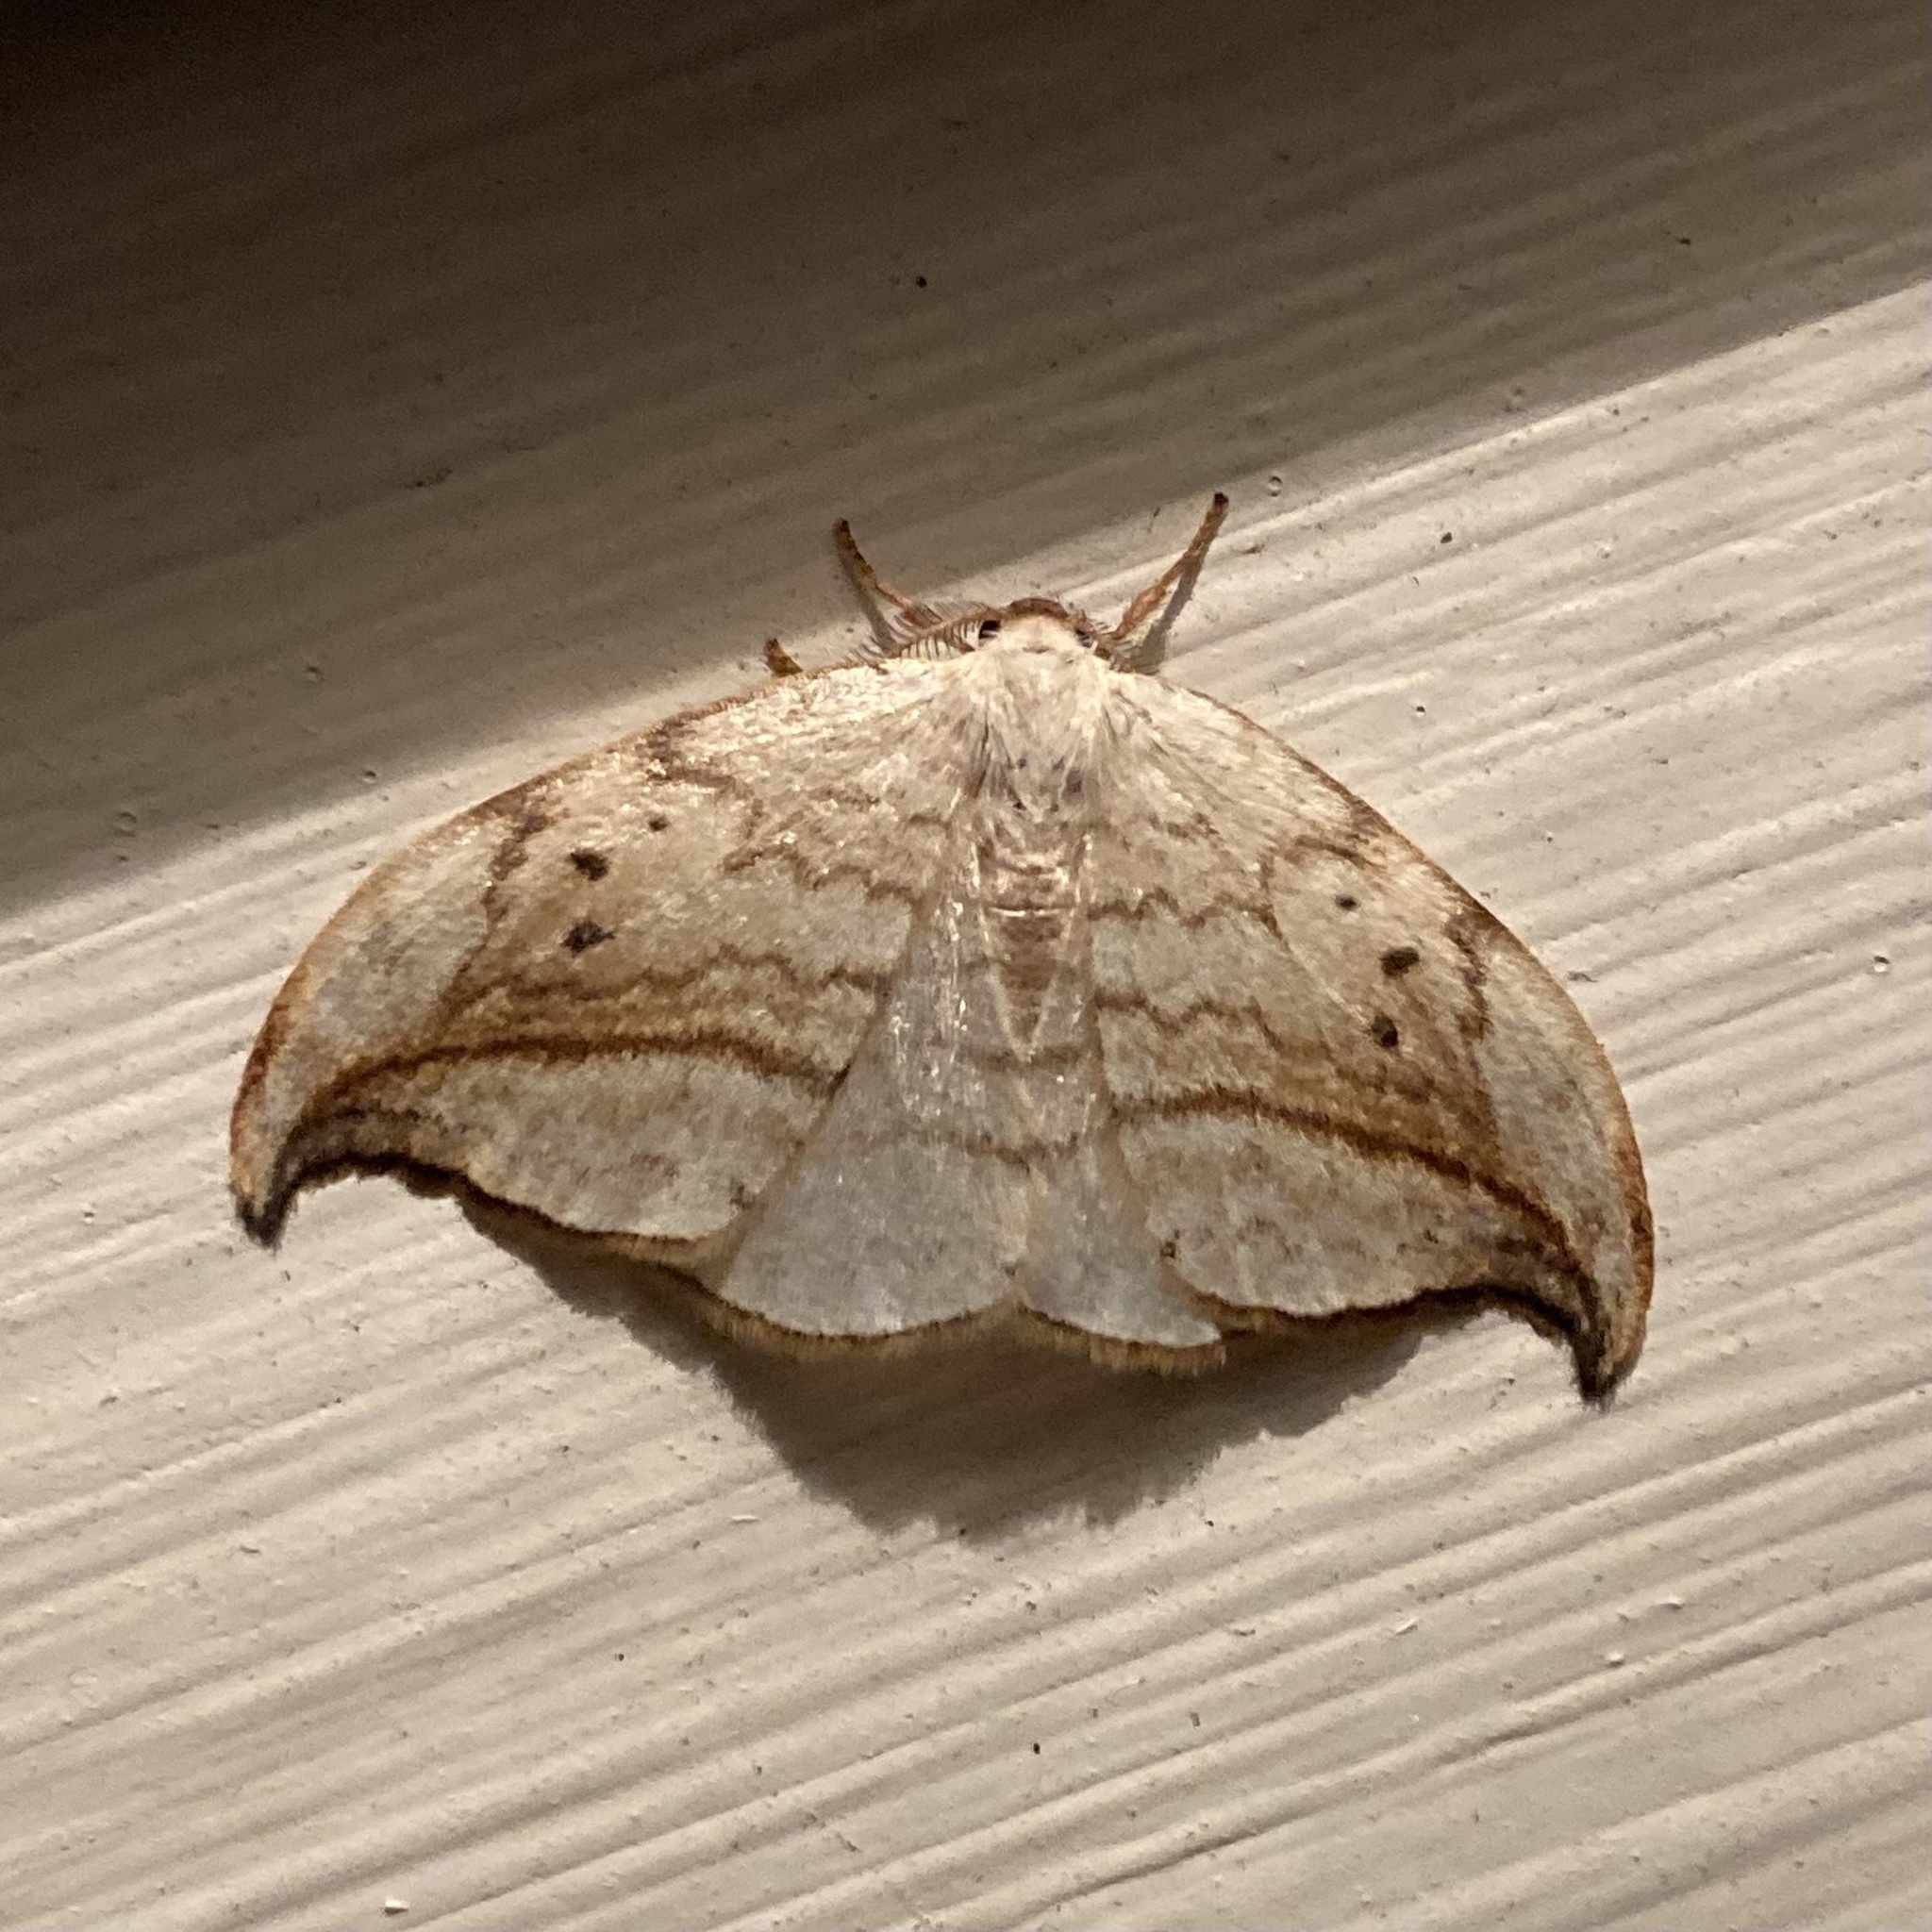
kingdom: Animalia
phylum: Arthropoda
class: Insecta
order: Lepidoptera
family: Drepanidae
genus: Drepana
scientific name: Drepana arcuata
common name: Arched hooktip moth
